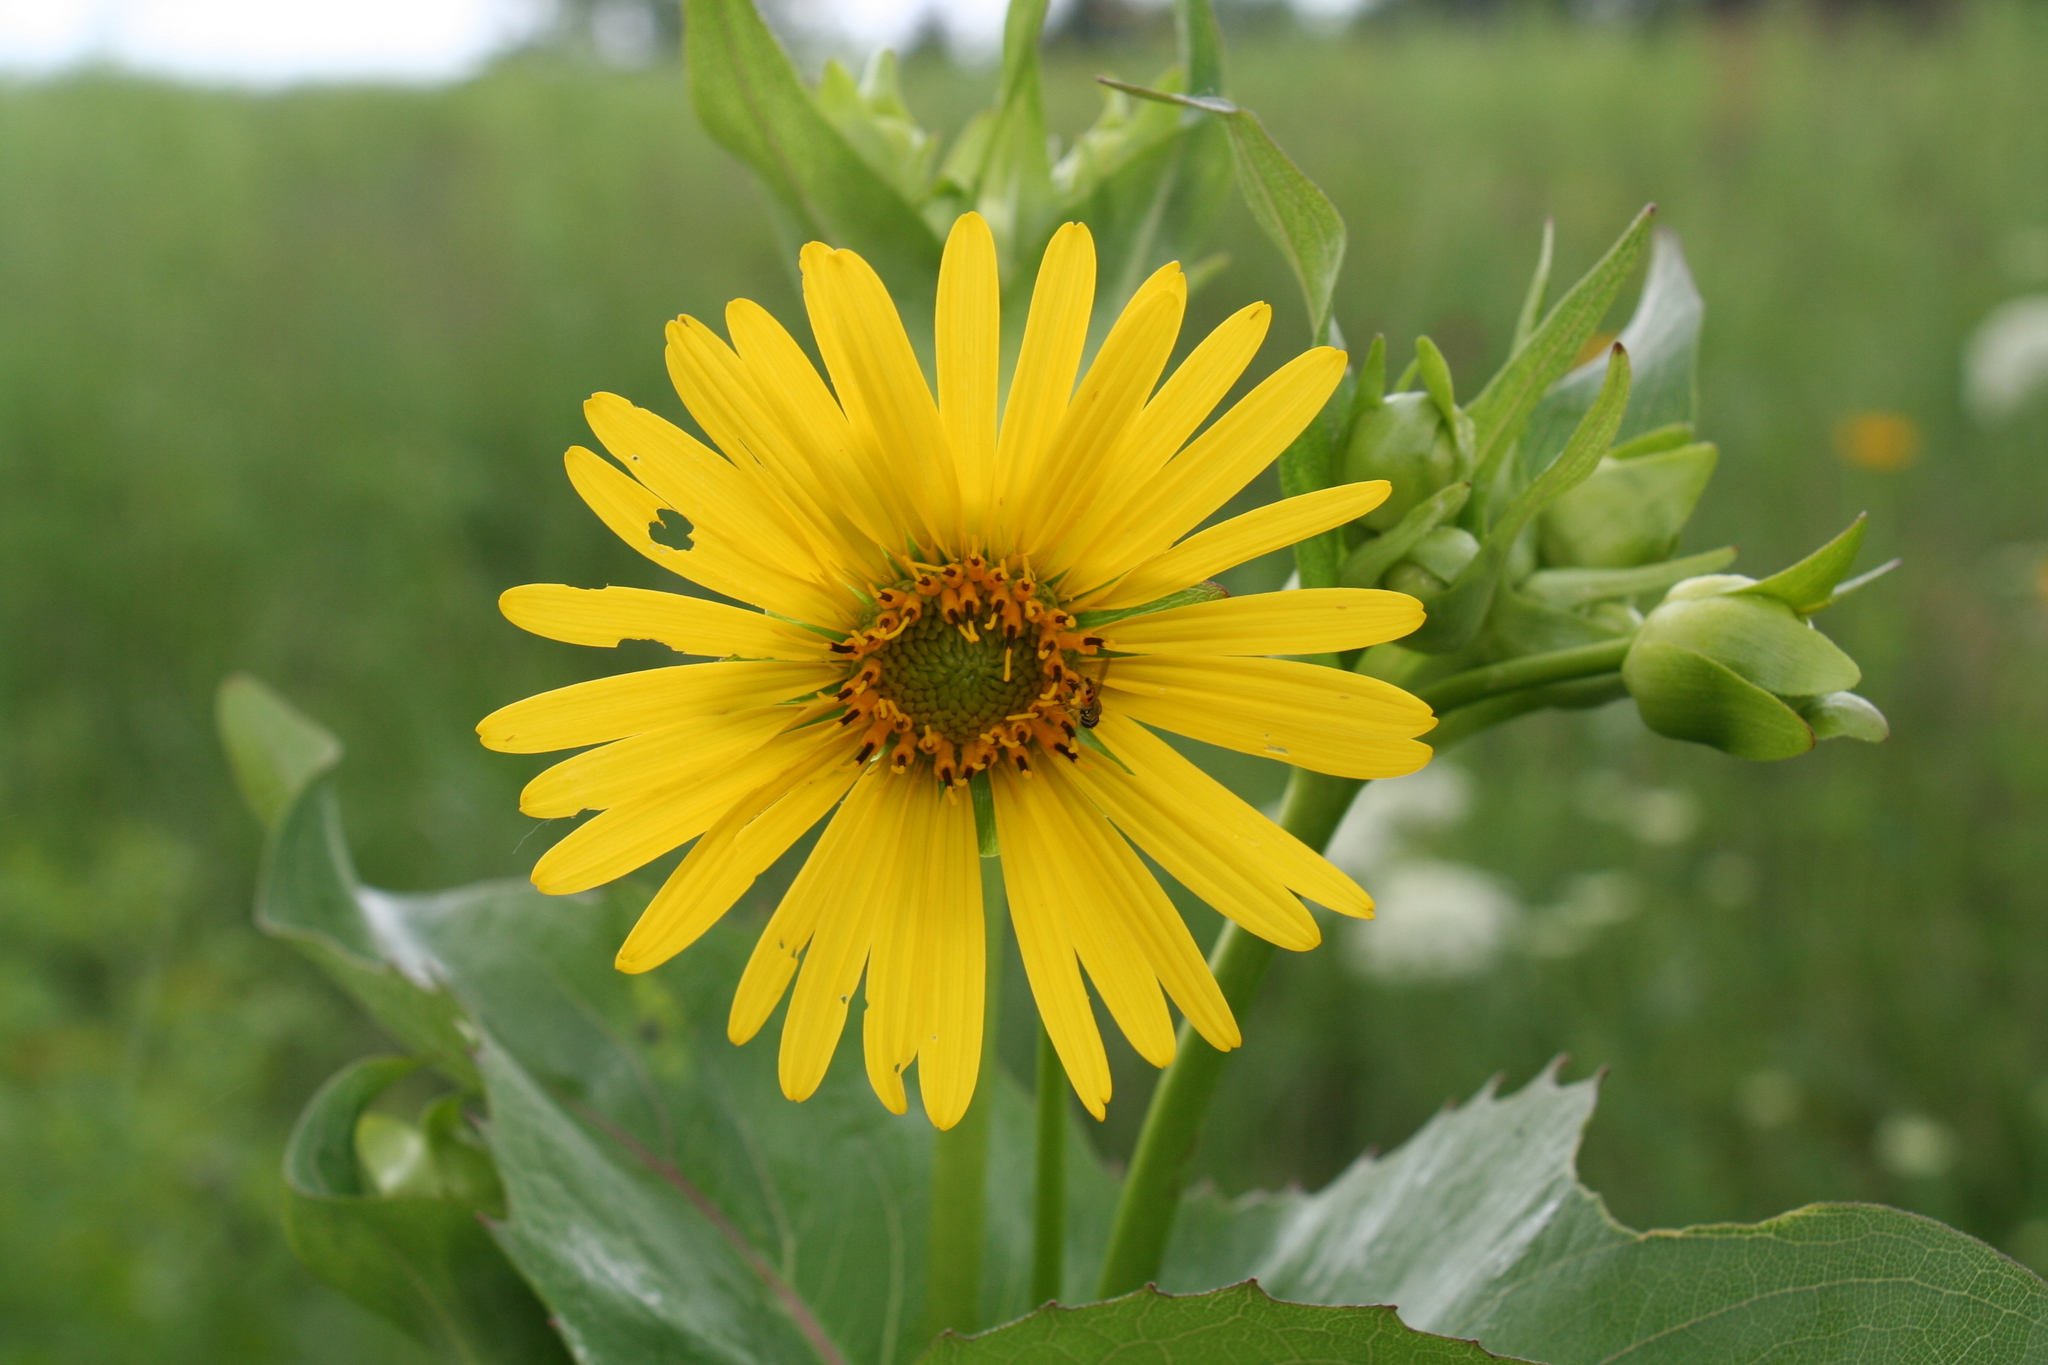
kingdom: Plantae
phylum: Tracheophyta
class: Magnoliopsida
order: Asterales
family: Asteraceae
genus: Silphium
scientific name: Silphium perfoliatum
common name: Cup-plant
